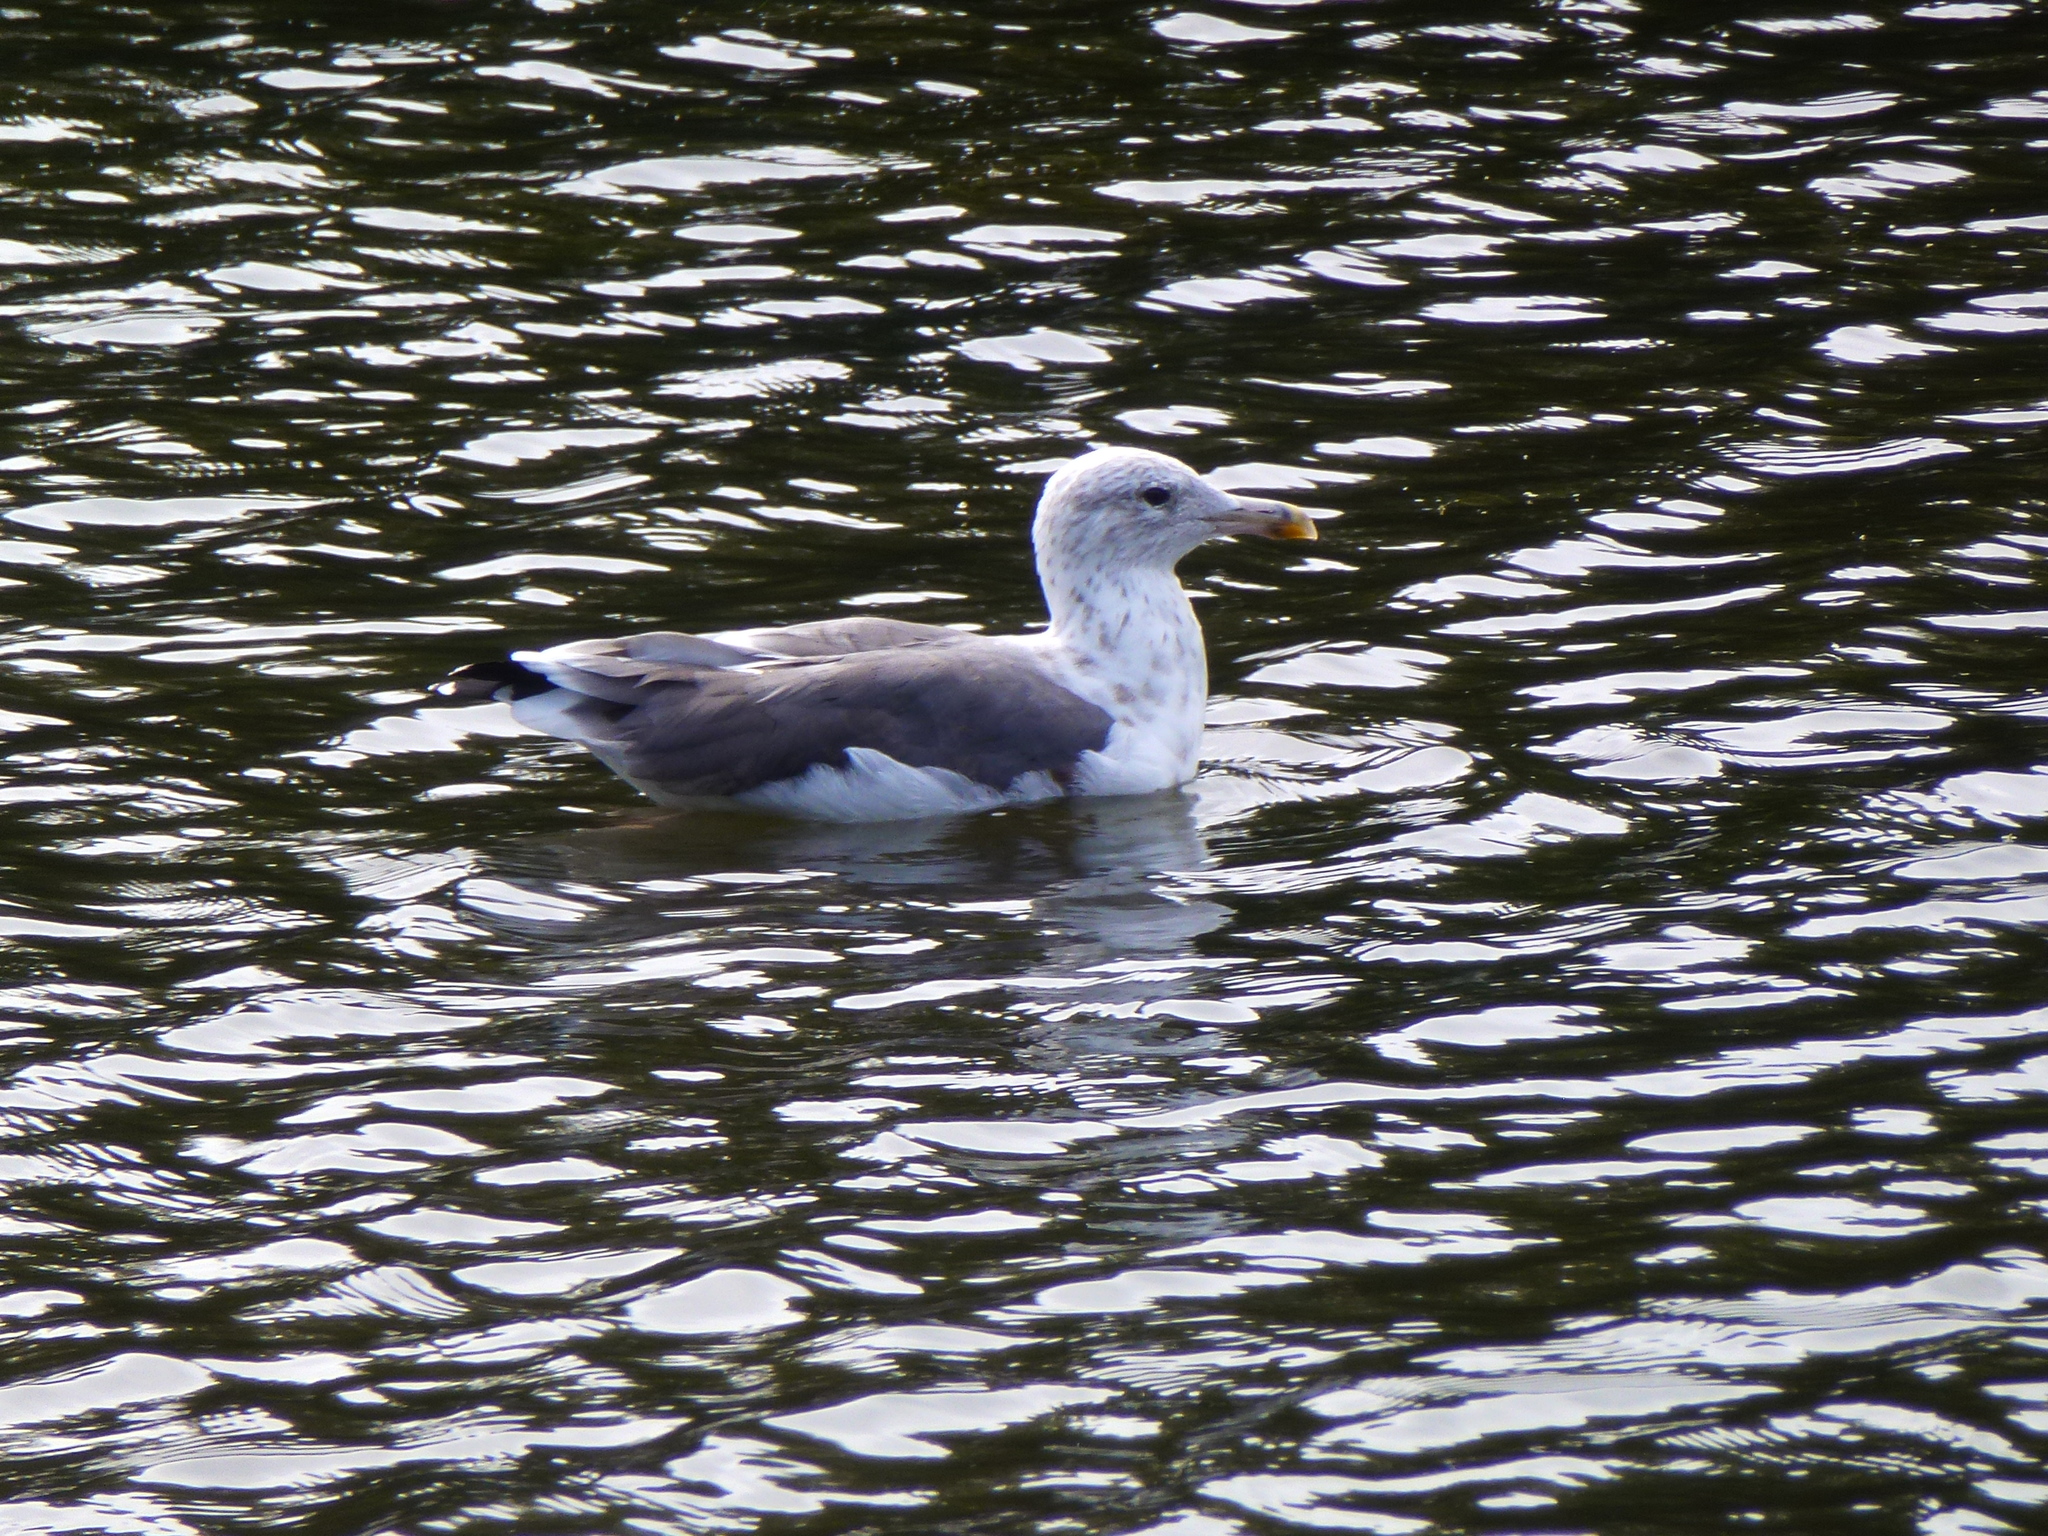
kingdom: Animalia
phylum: Chordata
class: Aves
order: Charadriiformes
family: Laridae
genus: Larus
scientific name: Larus fuscus
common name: Lesser black-backed gull
